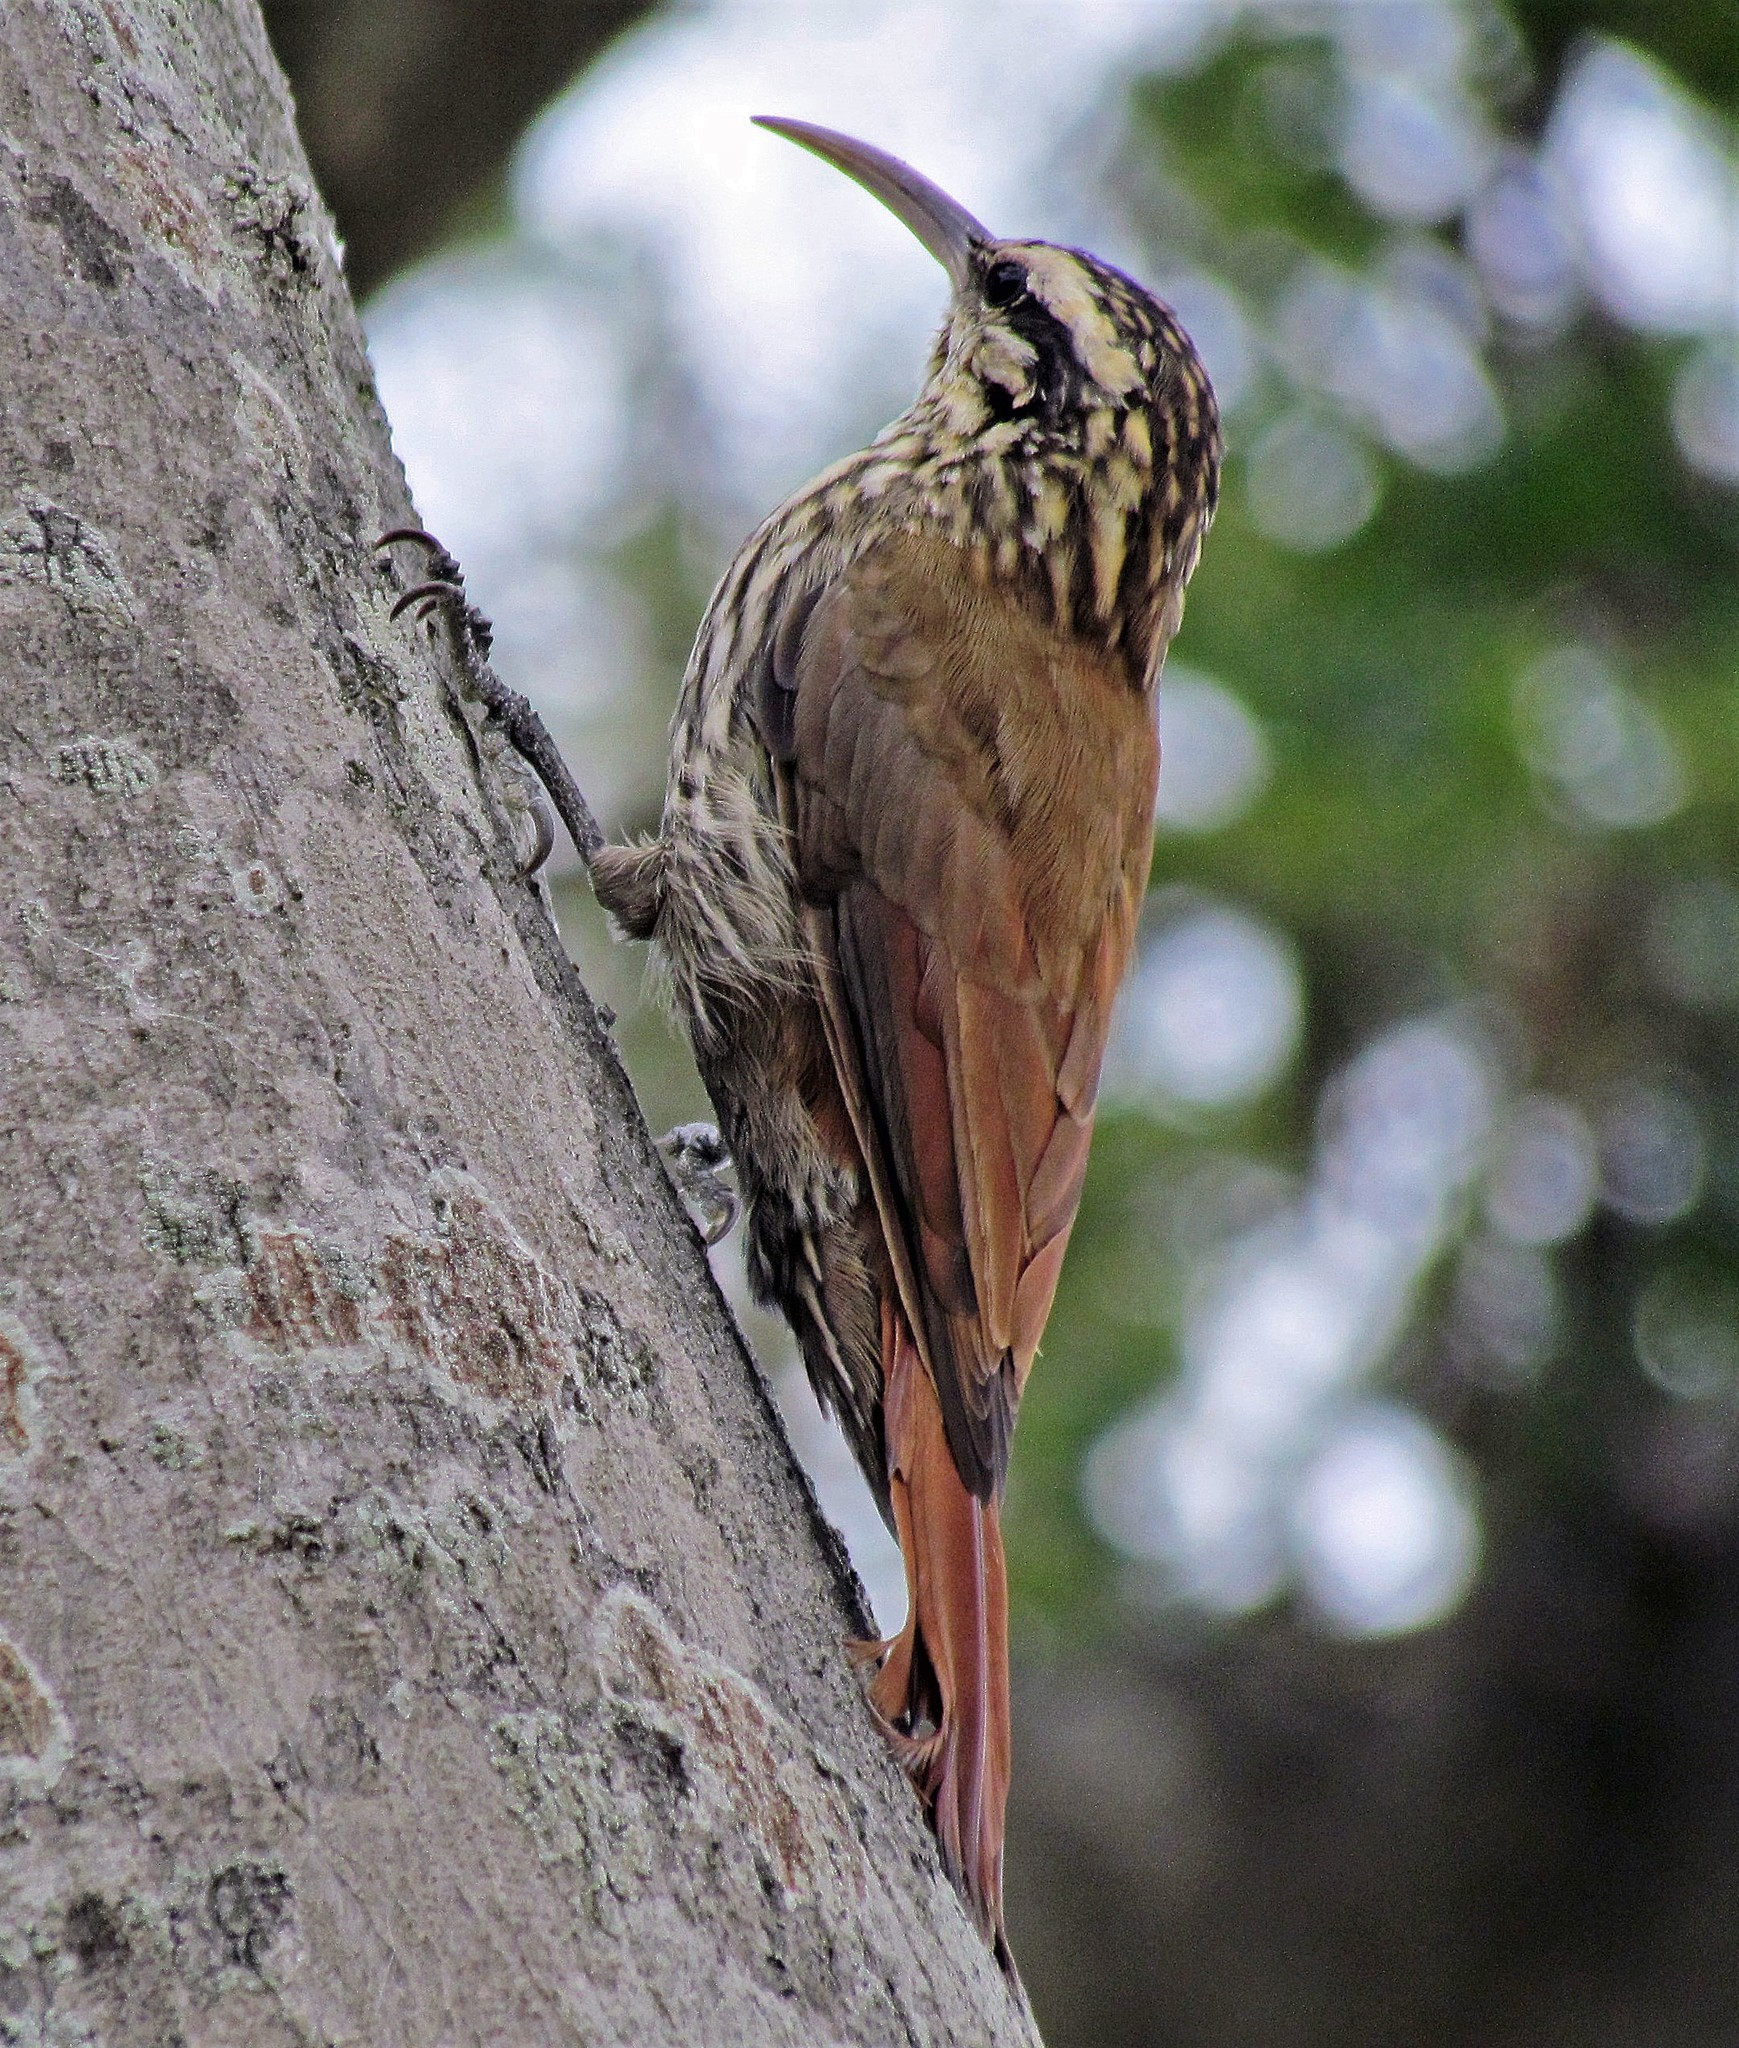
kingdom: Animalia
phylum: Chordata
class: Aves
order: Passeriformes
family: Furnariidae
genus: Lepidocolaptes
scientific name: Lepidocolaptes angustirostris
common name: Narrow-billed woodcreeper
